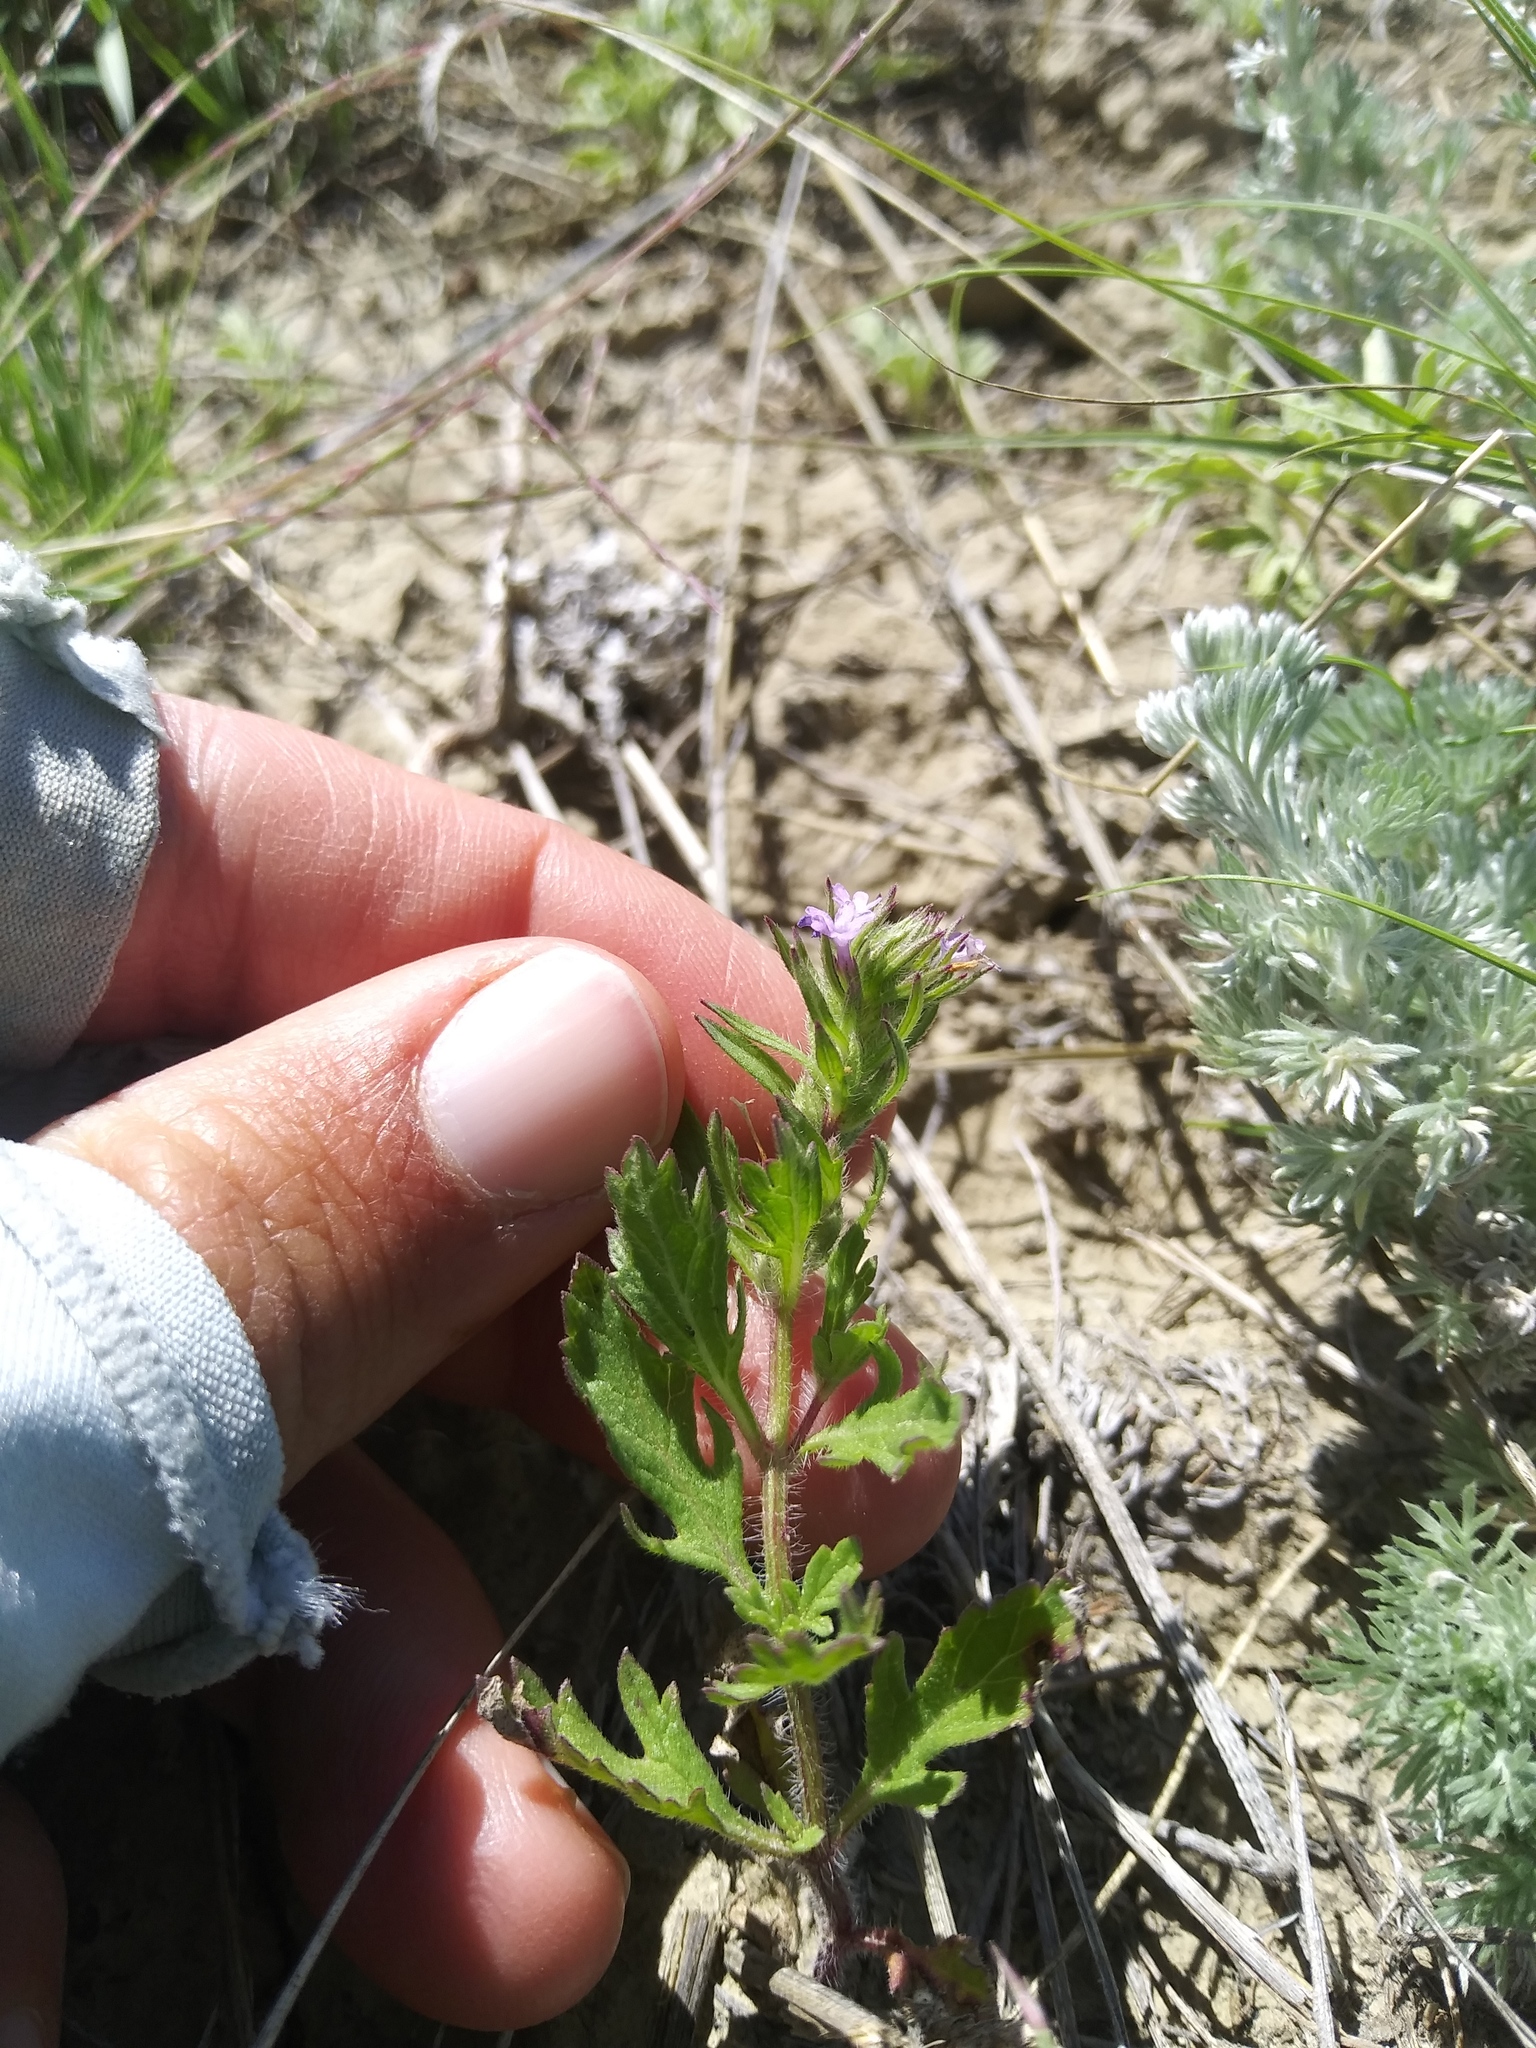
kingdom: Plantae
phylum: Tracheophyta
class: Magnoliopsida
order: Lamiales
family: Verbenaceae
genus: Verbena
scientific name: Verbena bracteata
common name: Bracted vervain
